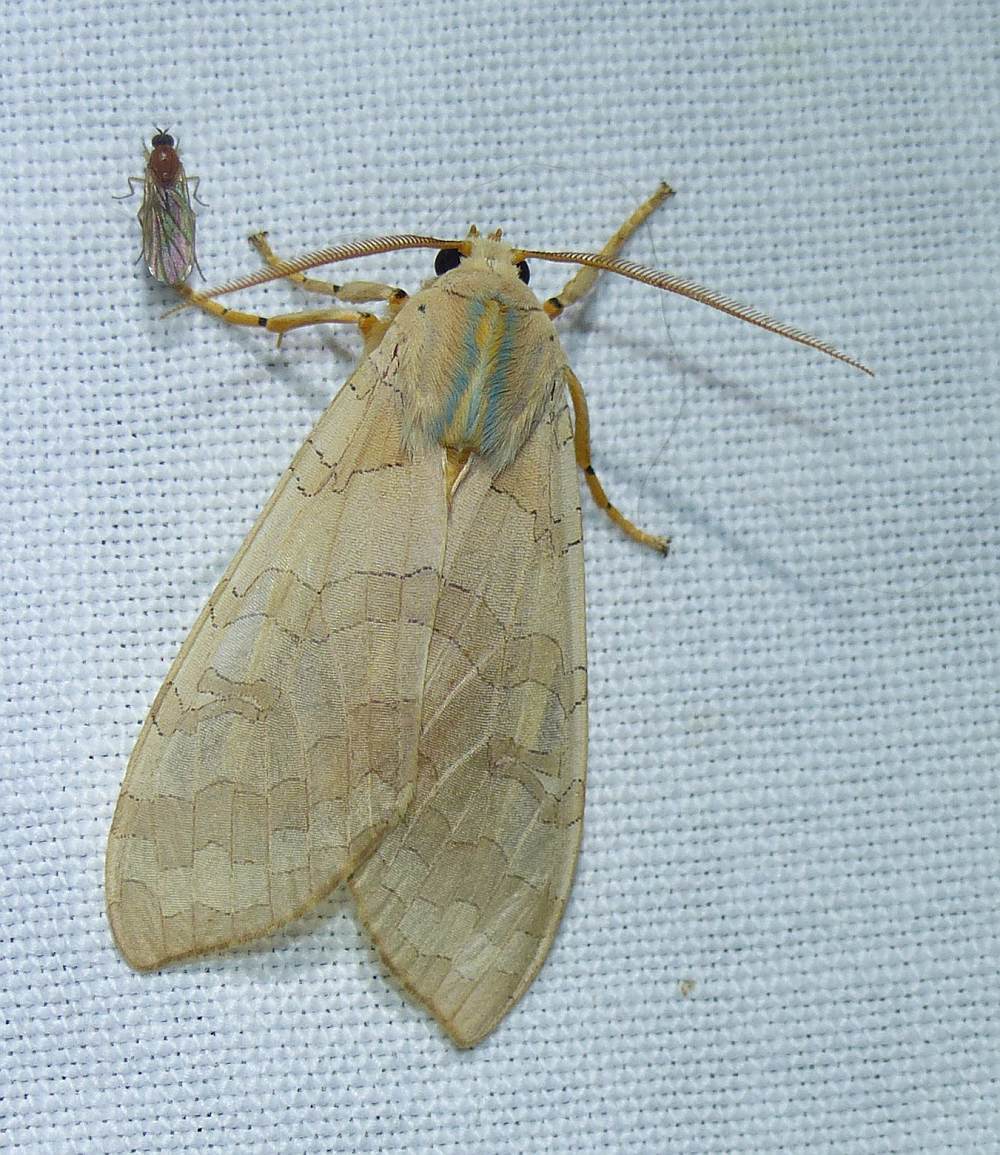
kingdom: Animalia
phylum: Arthropoda
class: Insecta
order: Lepidoptera
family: Erebidae
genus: Halysidota
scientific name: Halysidota tessellaris
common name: Banded tussock moth
